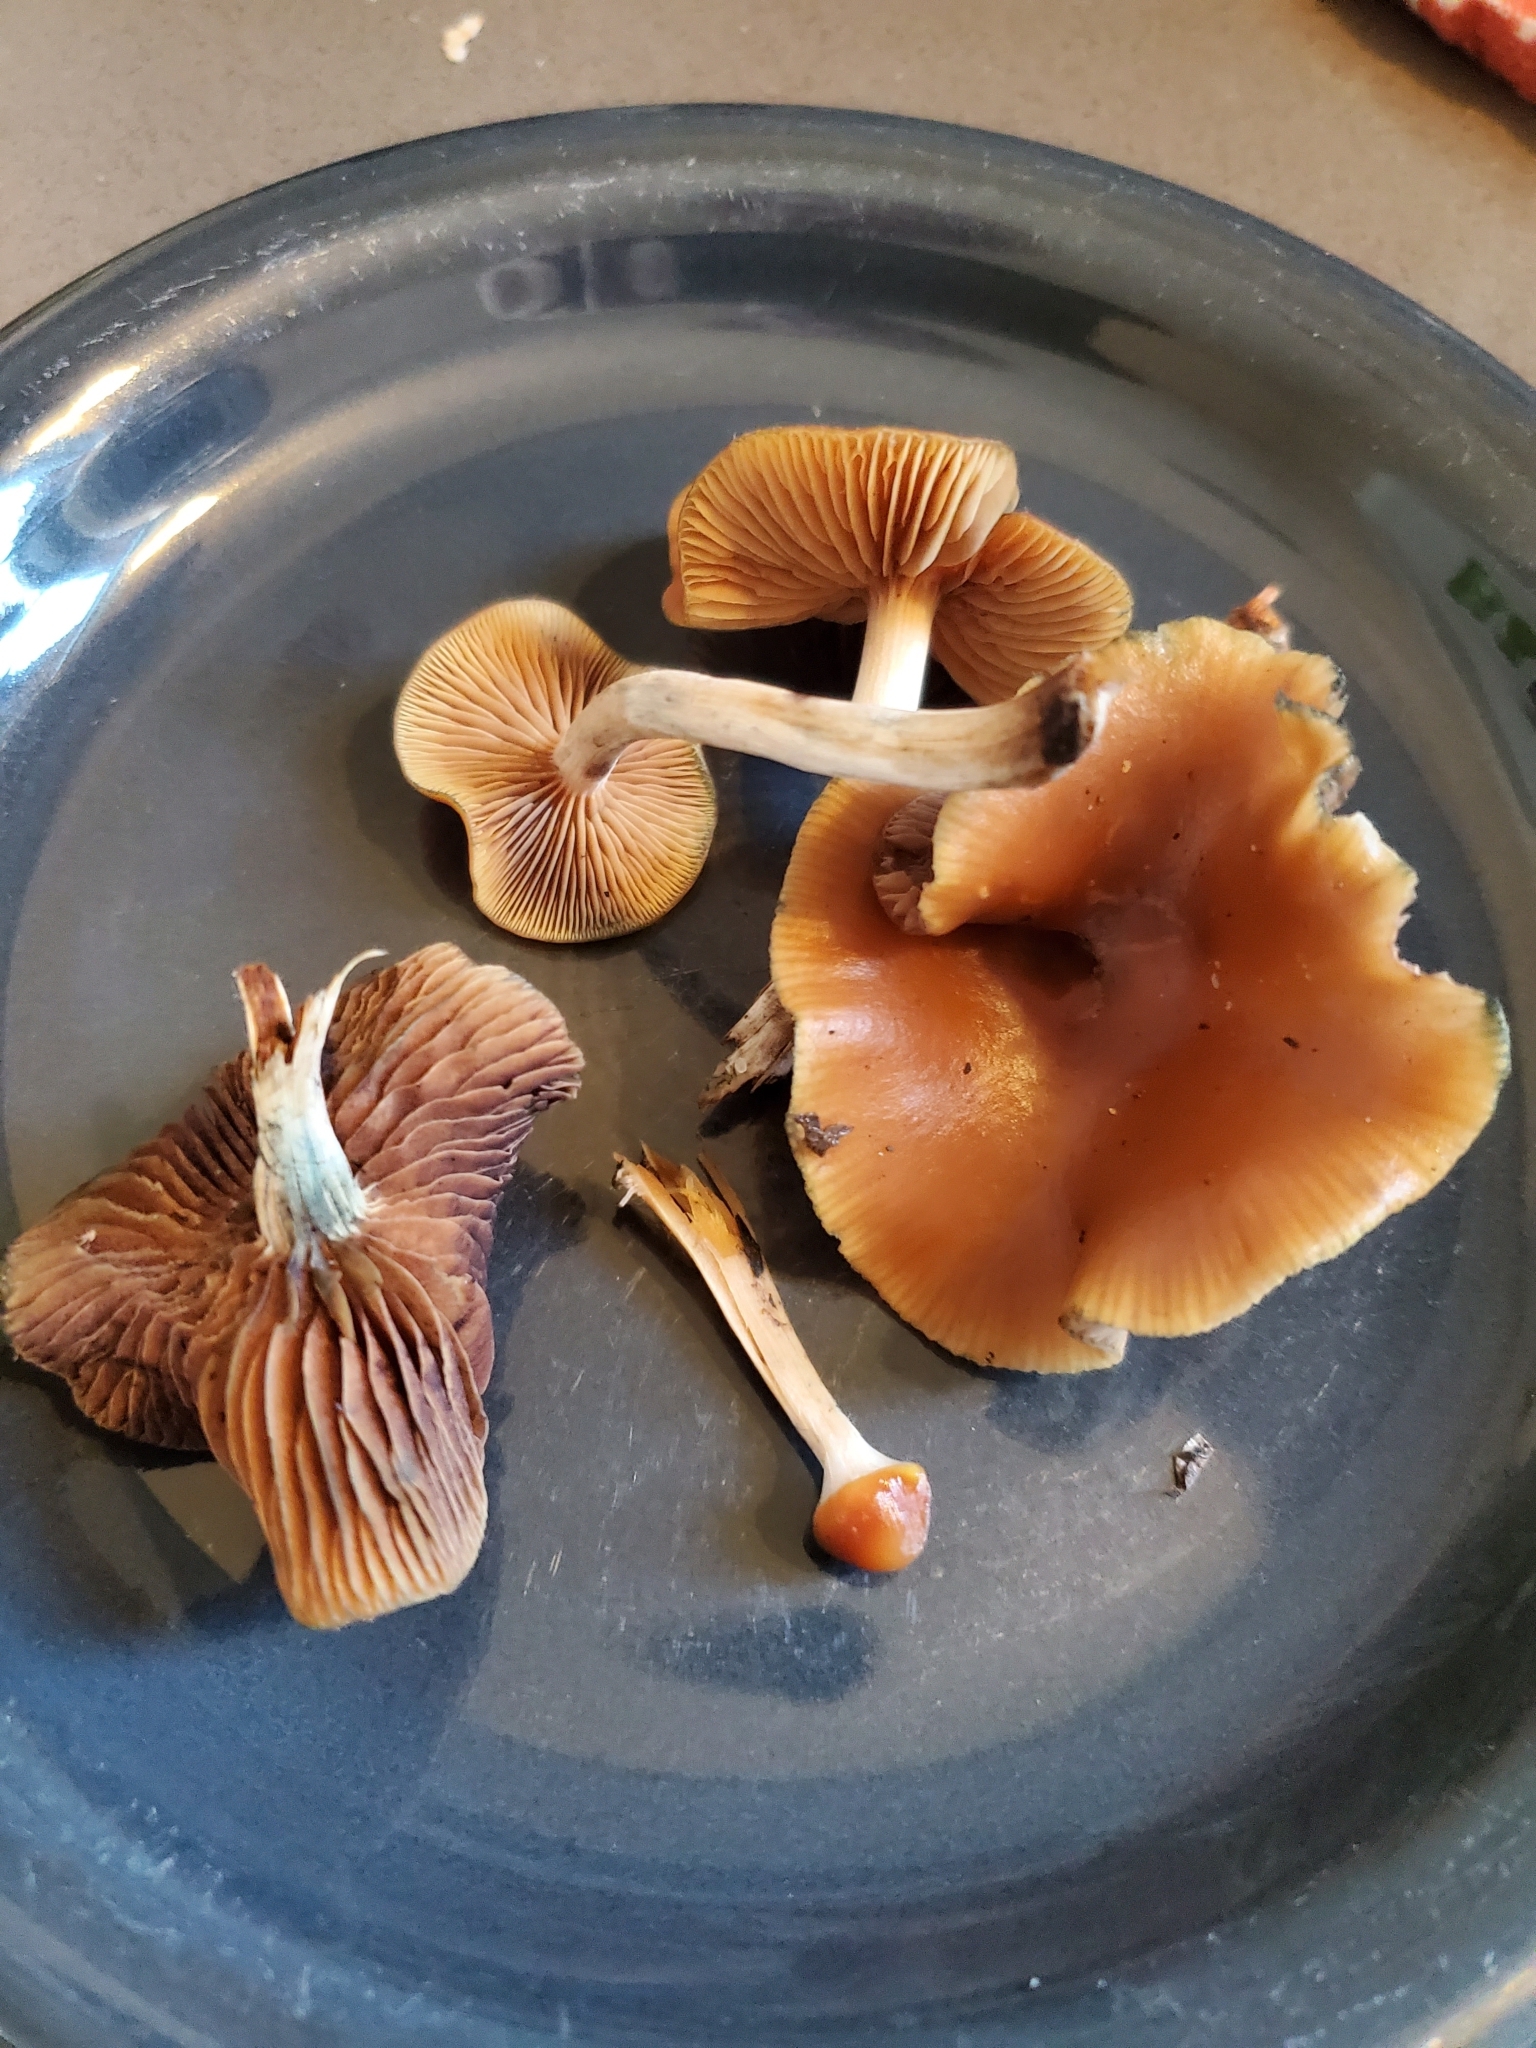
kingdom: Fungi
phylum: Basidiomycota
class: Agaricomycetes
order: Agaricales
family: Hymenogastraceae
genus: Psilocybe
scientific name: Psilocybe cyanescens
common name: Blueleg brownie
